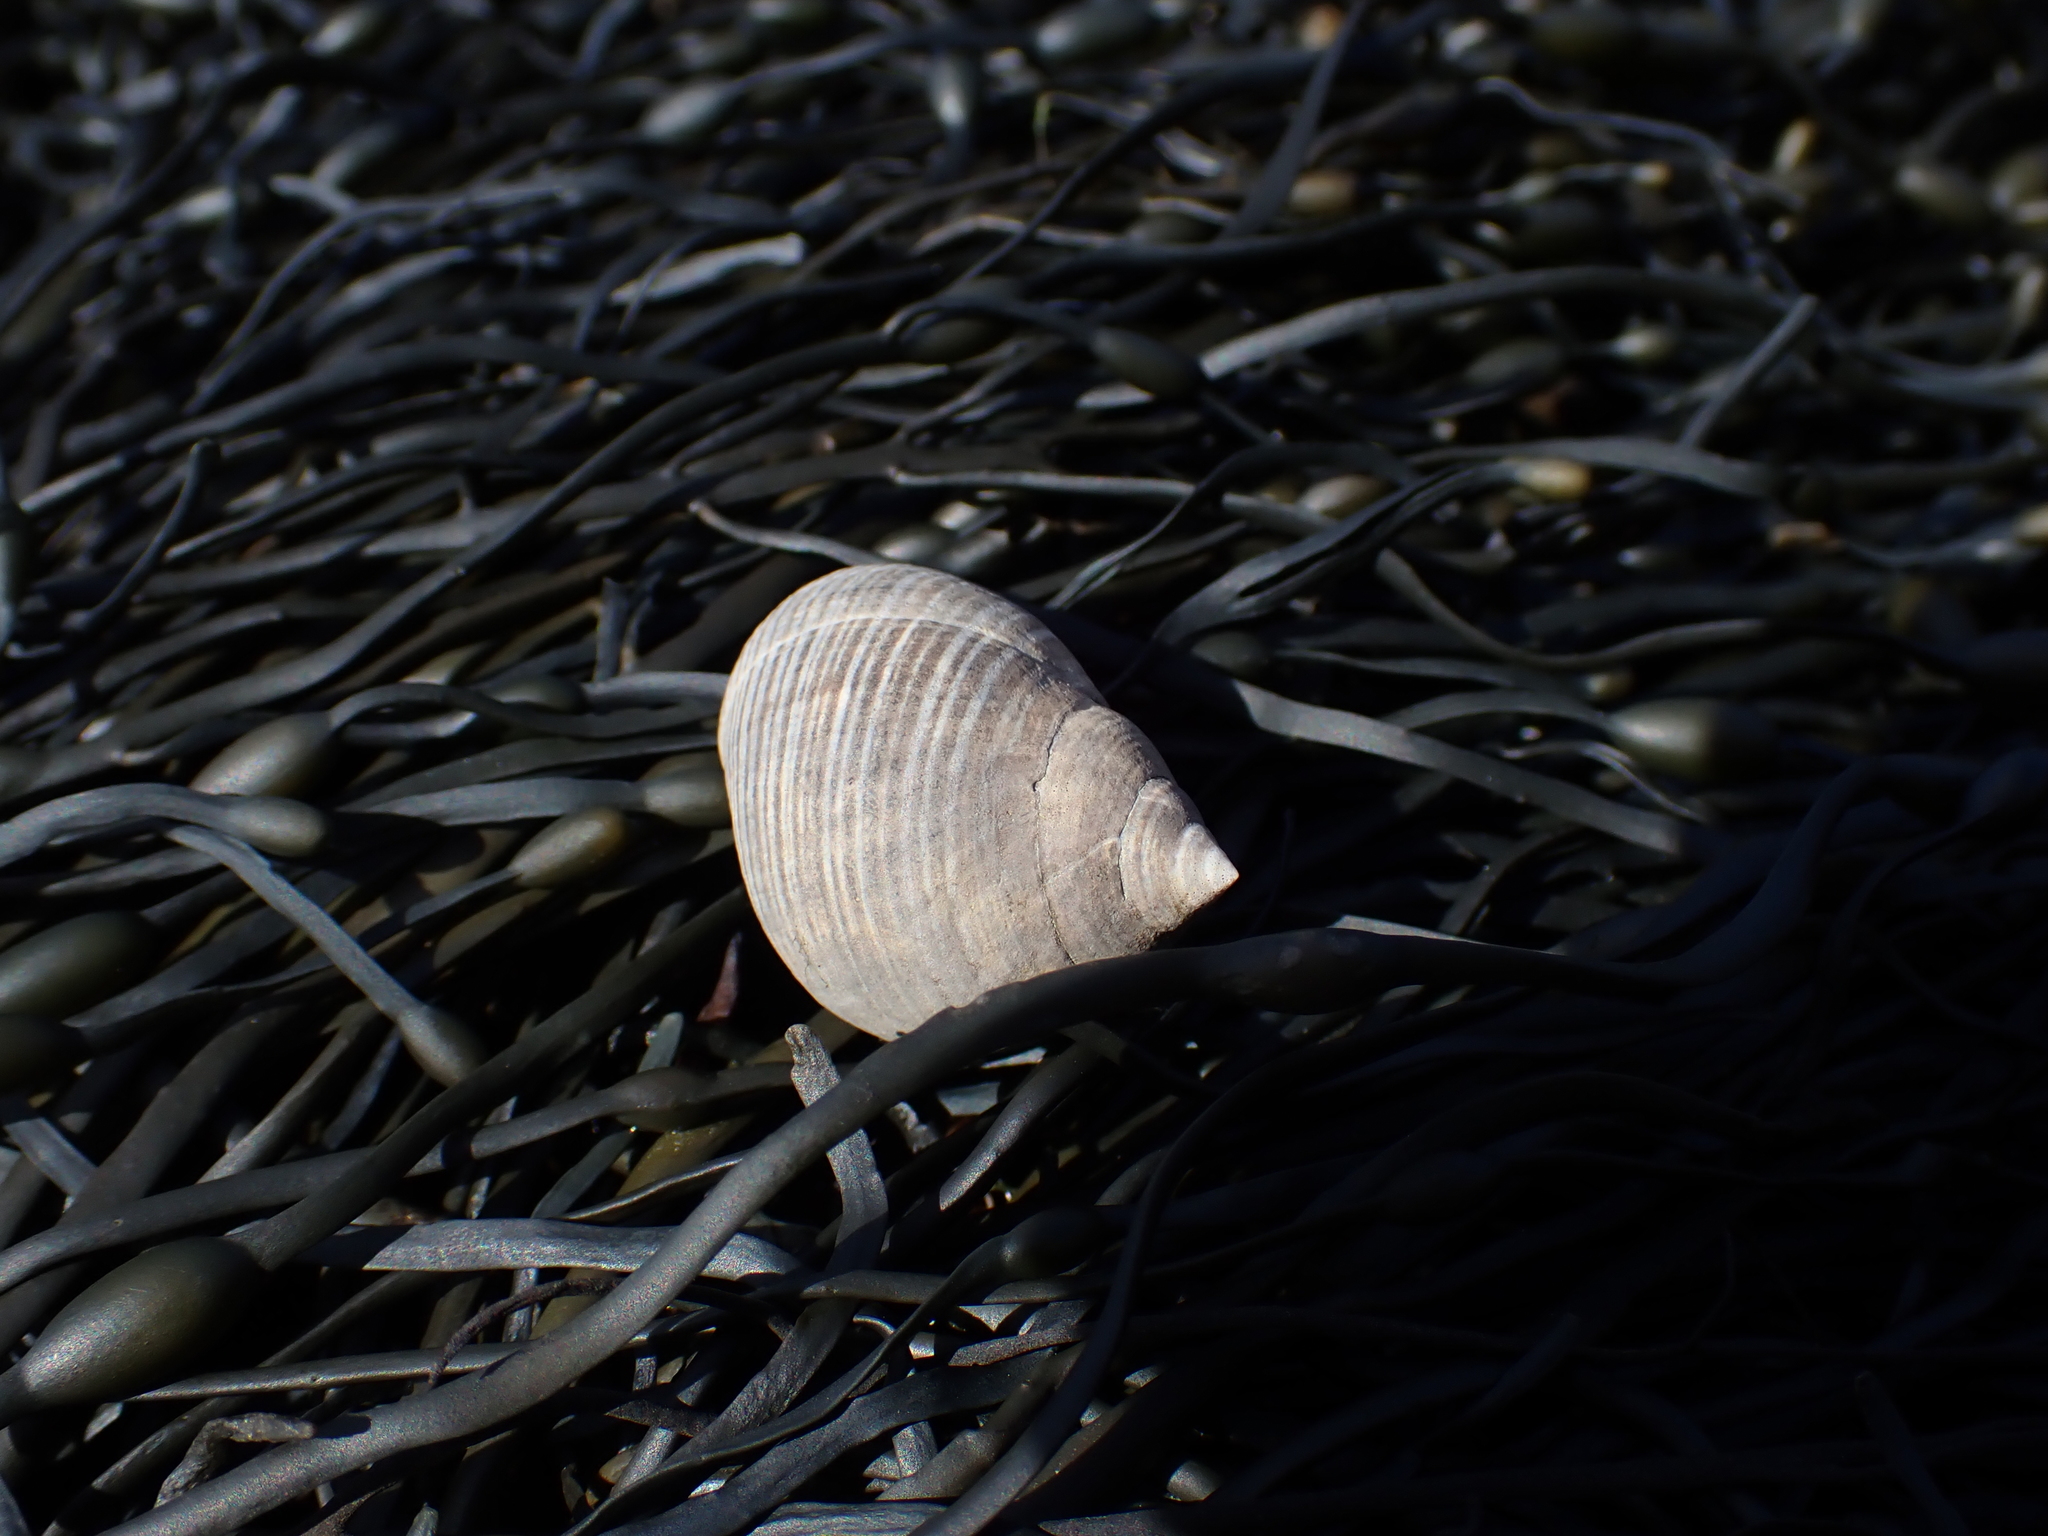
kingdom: Animalia
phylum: Mollusca
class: Gastropoda
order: Littorinimorpha
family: Littorinidae
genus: Littorina
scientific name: Littorina littorea
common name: Common periwinkle
